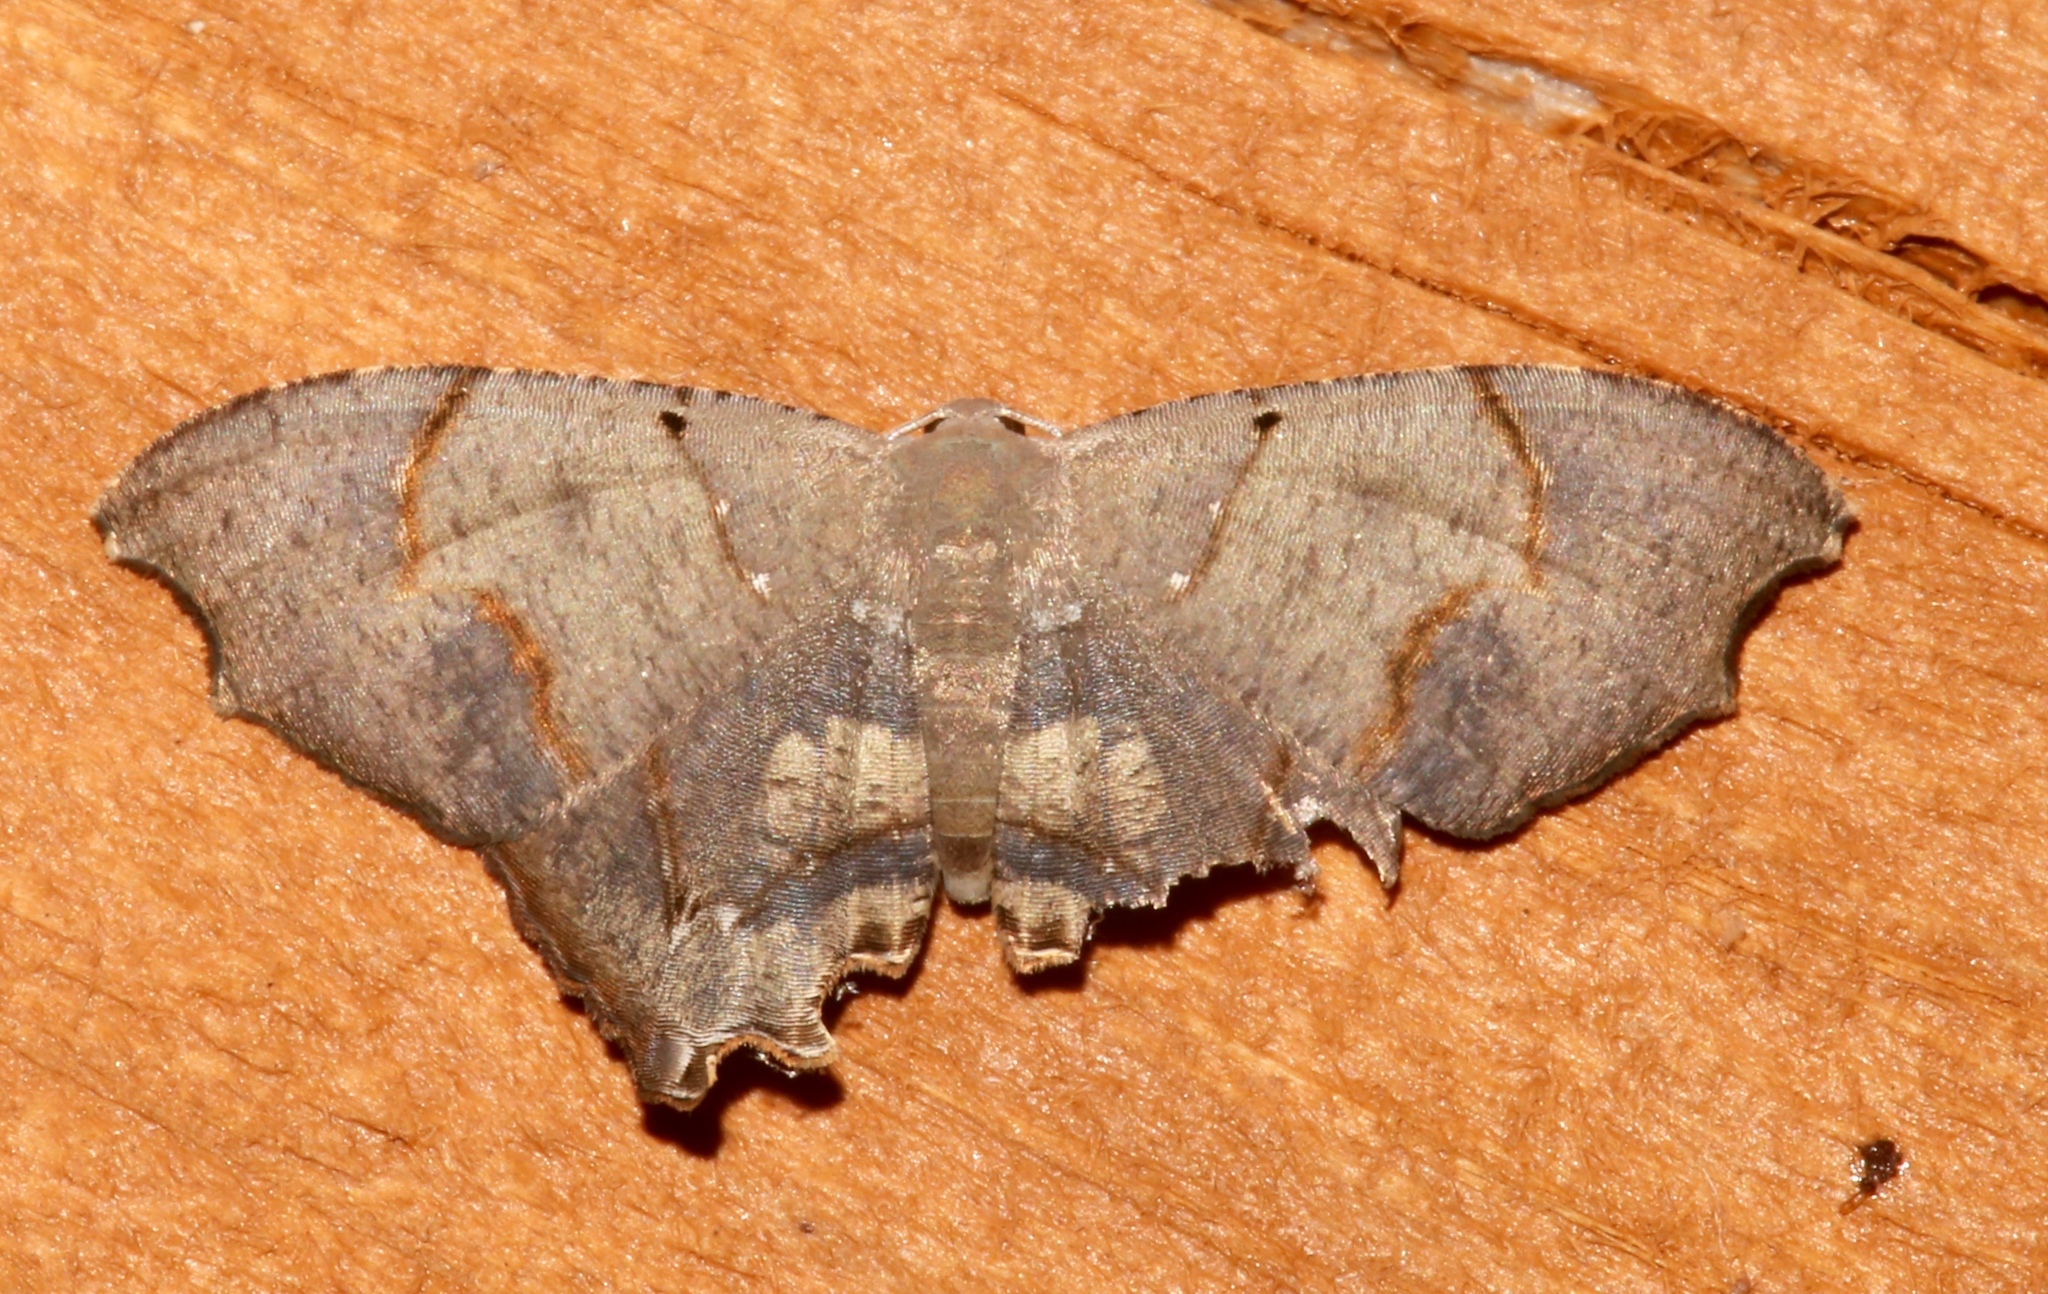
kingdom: Animalia
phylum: Arthropoda
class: Insecta
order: Lepidoptera
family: Uraniidae
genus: Trotorhombia
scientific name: Trotorhombia metachromata
